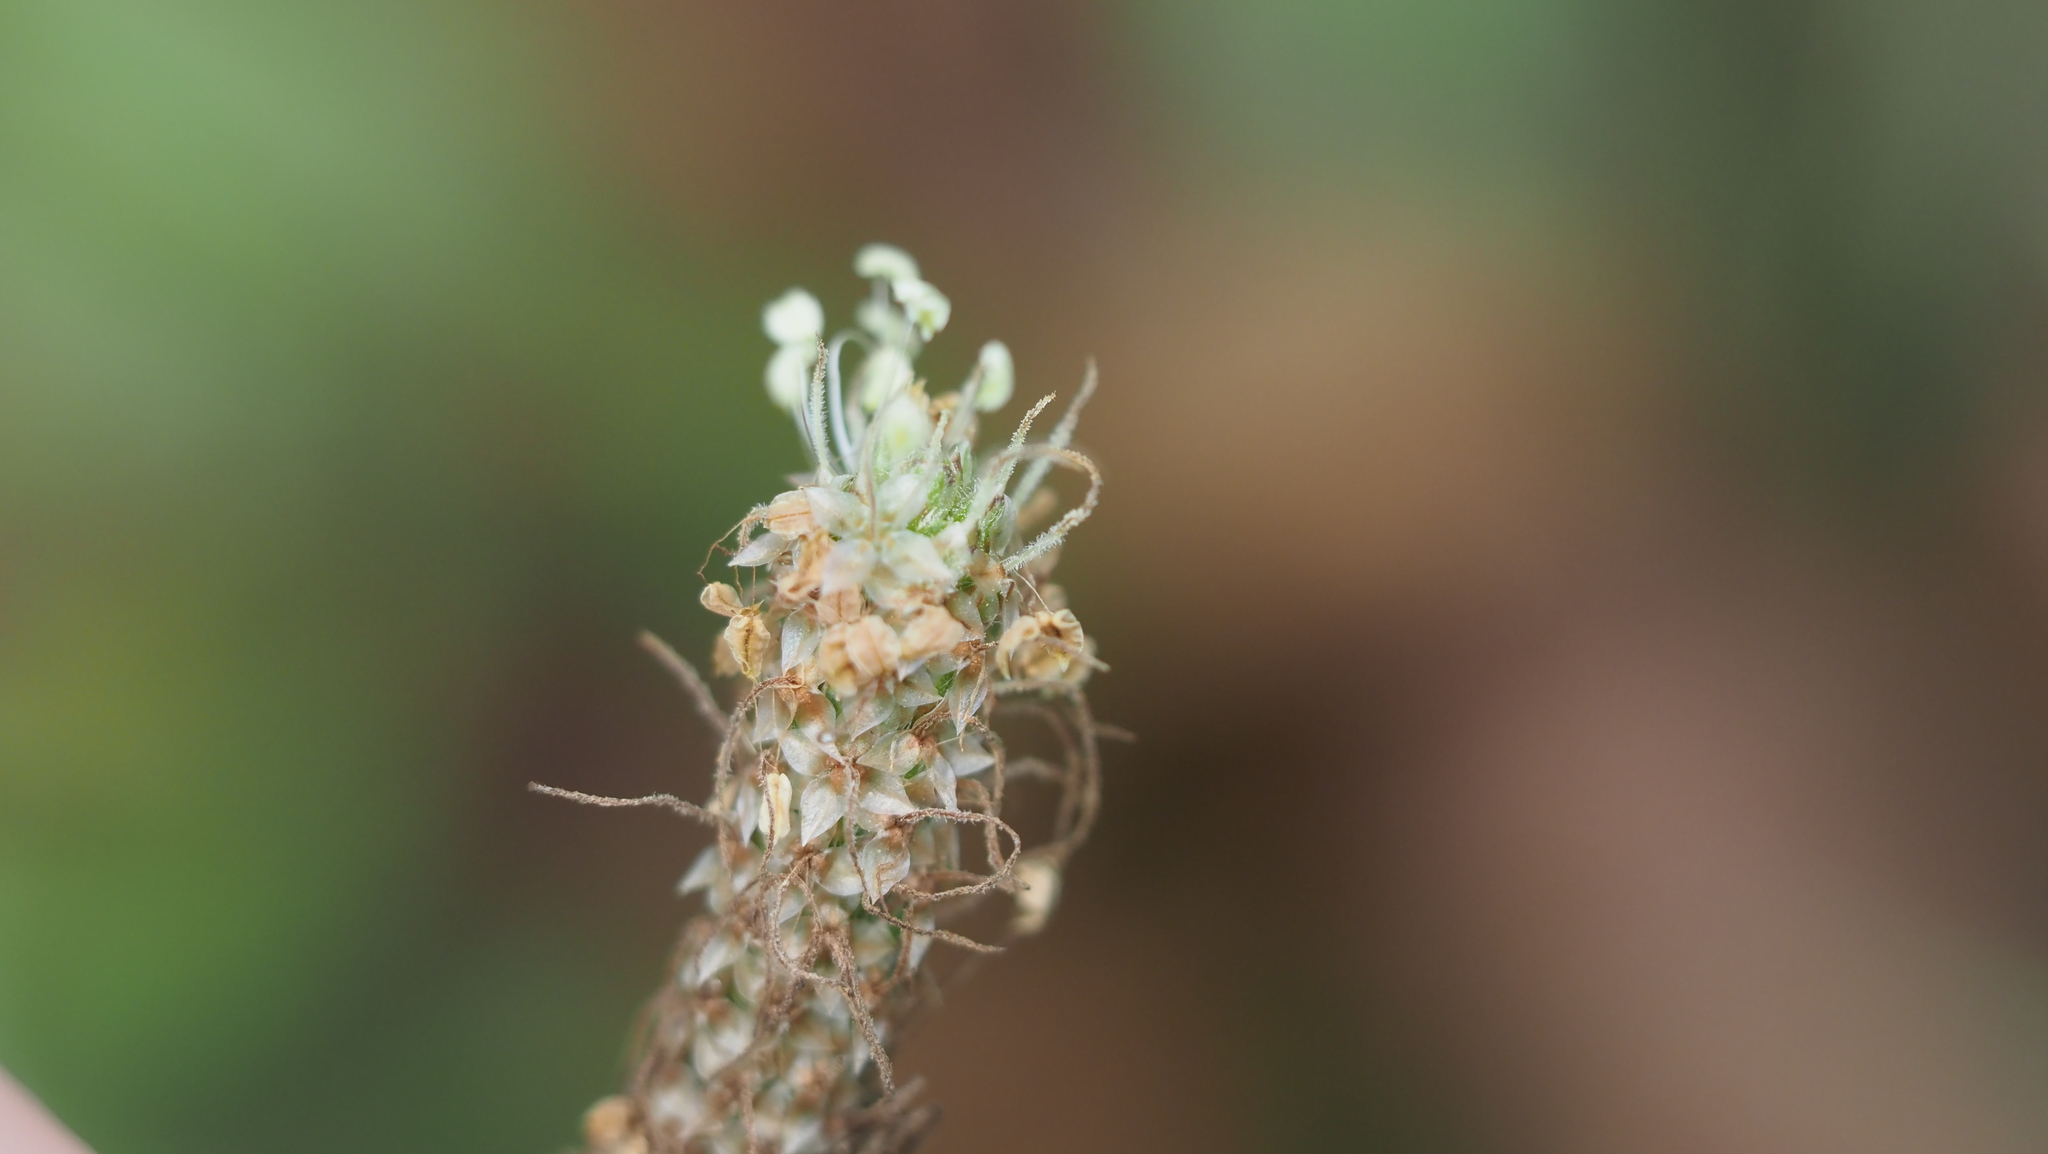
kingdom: Plantae
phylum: Tracheophyta
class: Magnoliopsida
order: Lamiales
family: Plantaginaceae
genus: Plantago
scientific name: Plantago lanceolata
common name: Ribwort plantain
